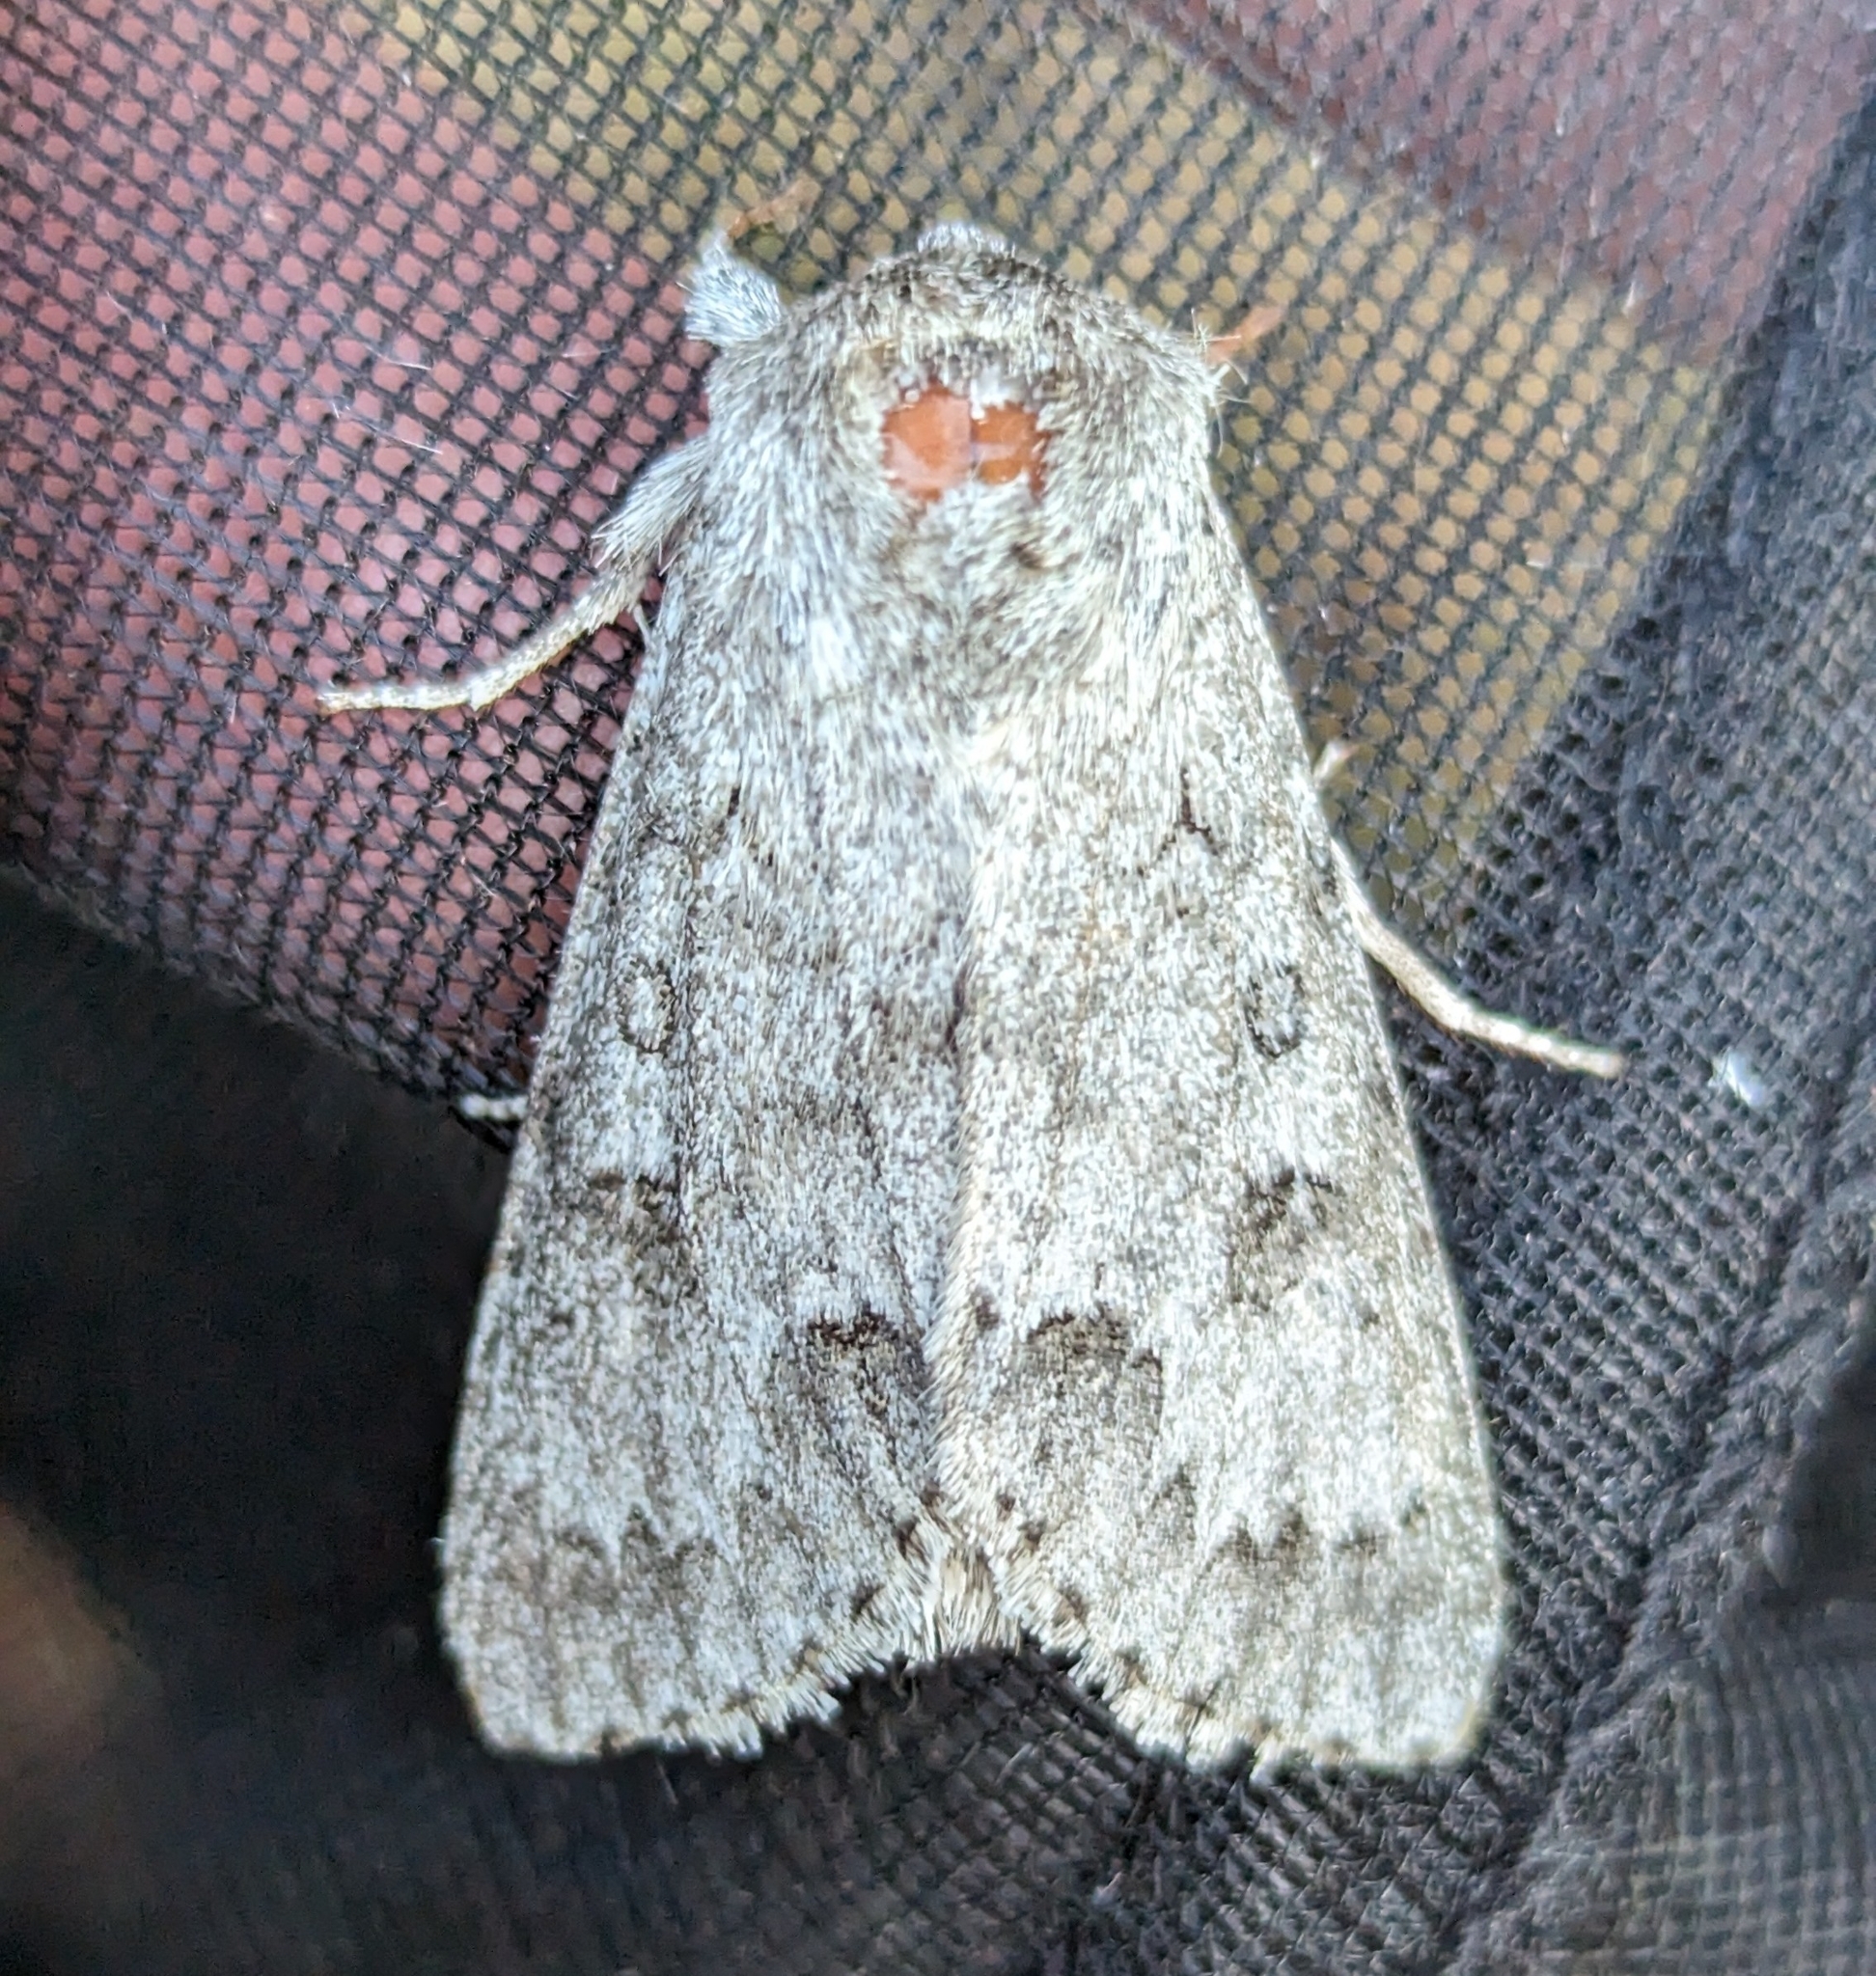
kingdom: Animalia
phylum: Arthropoda
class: Insecta
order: Lepidoptera
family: Noctuidae
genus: Acronicta
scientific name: Acronicta insita
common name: Large gray dagger
